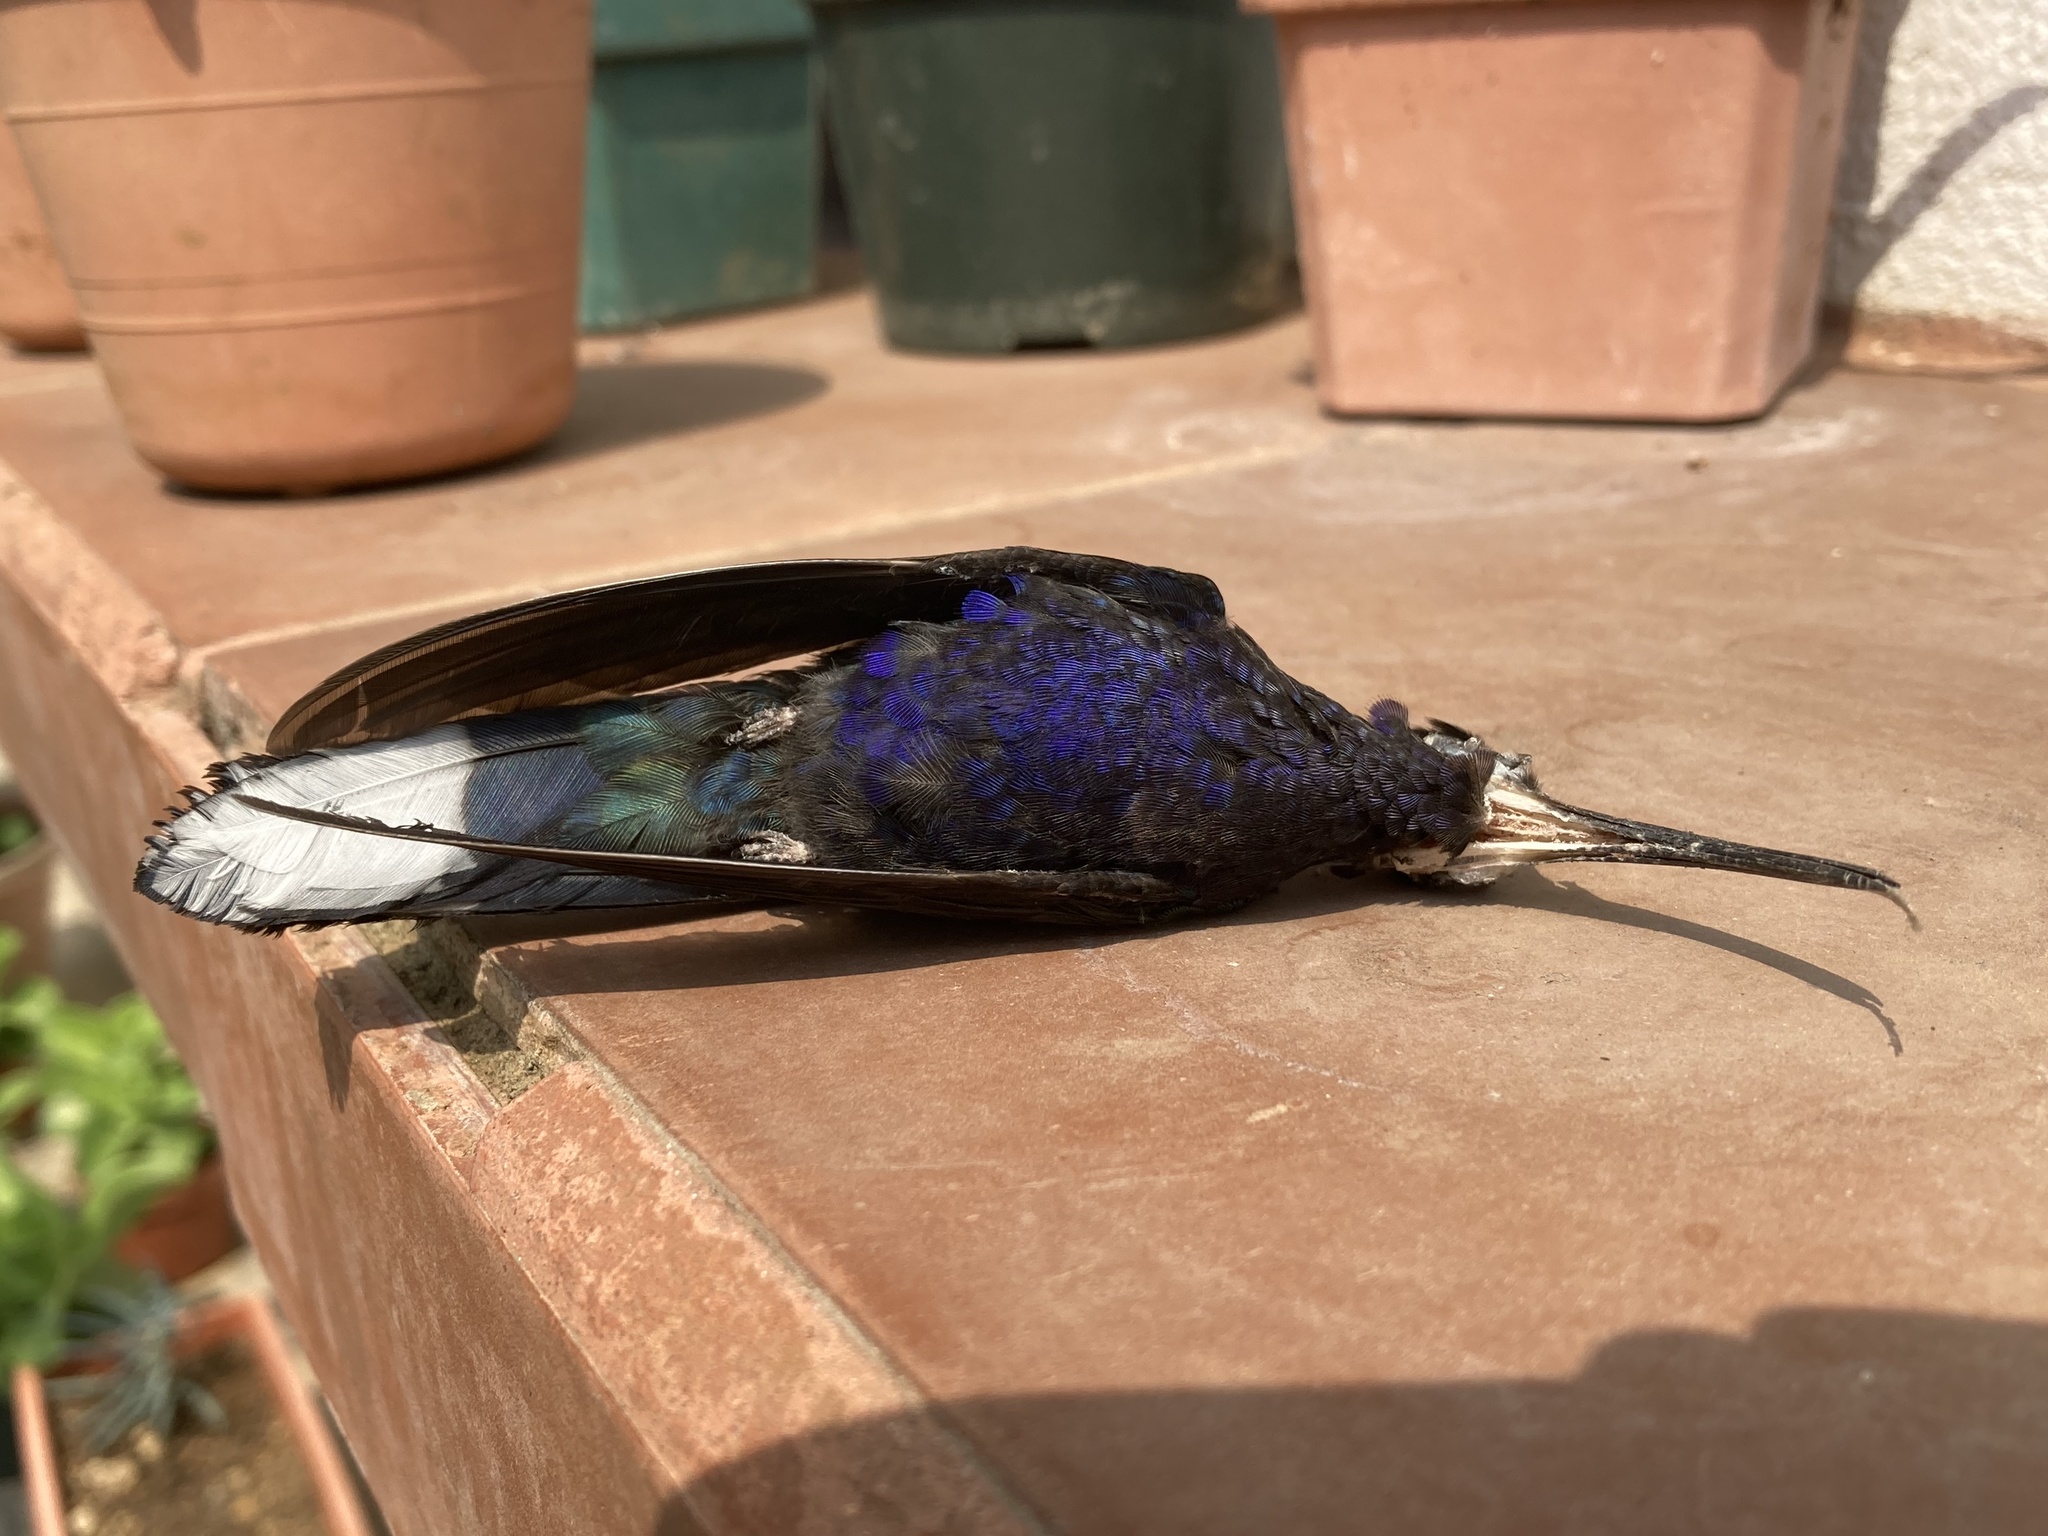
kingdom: Animalia
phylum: Chordata
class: Aves
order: Apodiformes
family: Trochilidae
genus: Campylopterus
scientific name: Campylopterus hemileucurus
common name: Violet sabrewing
